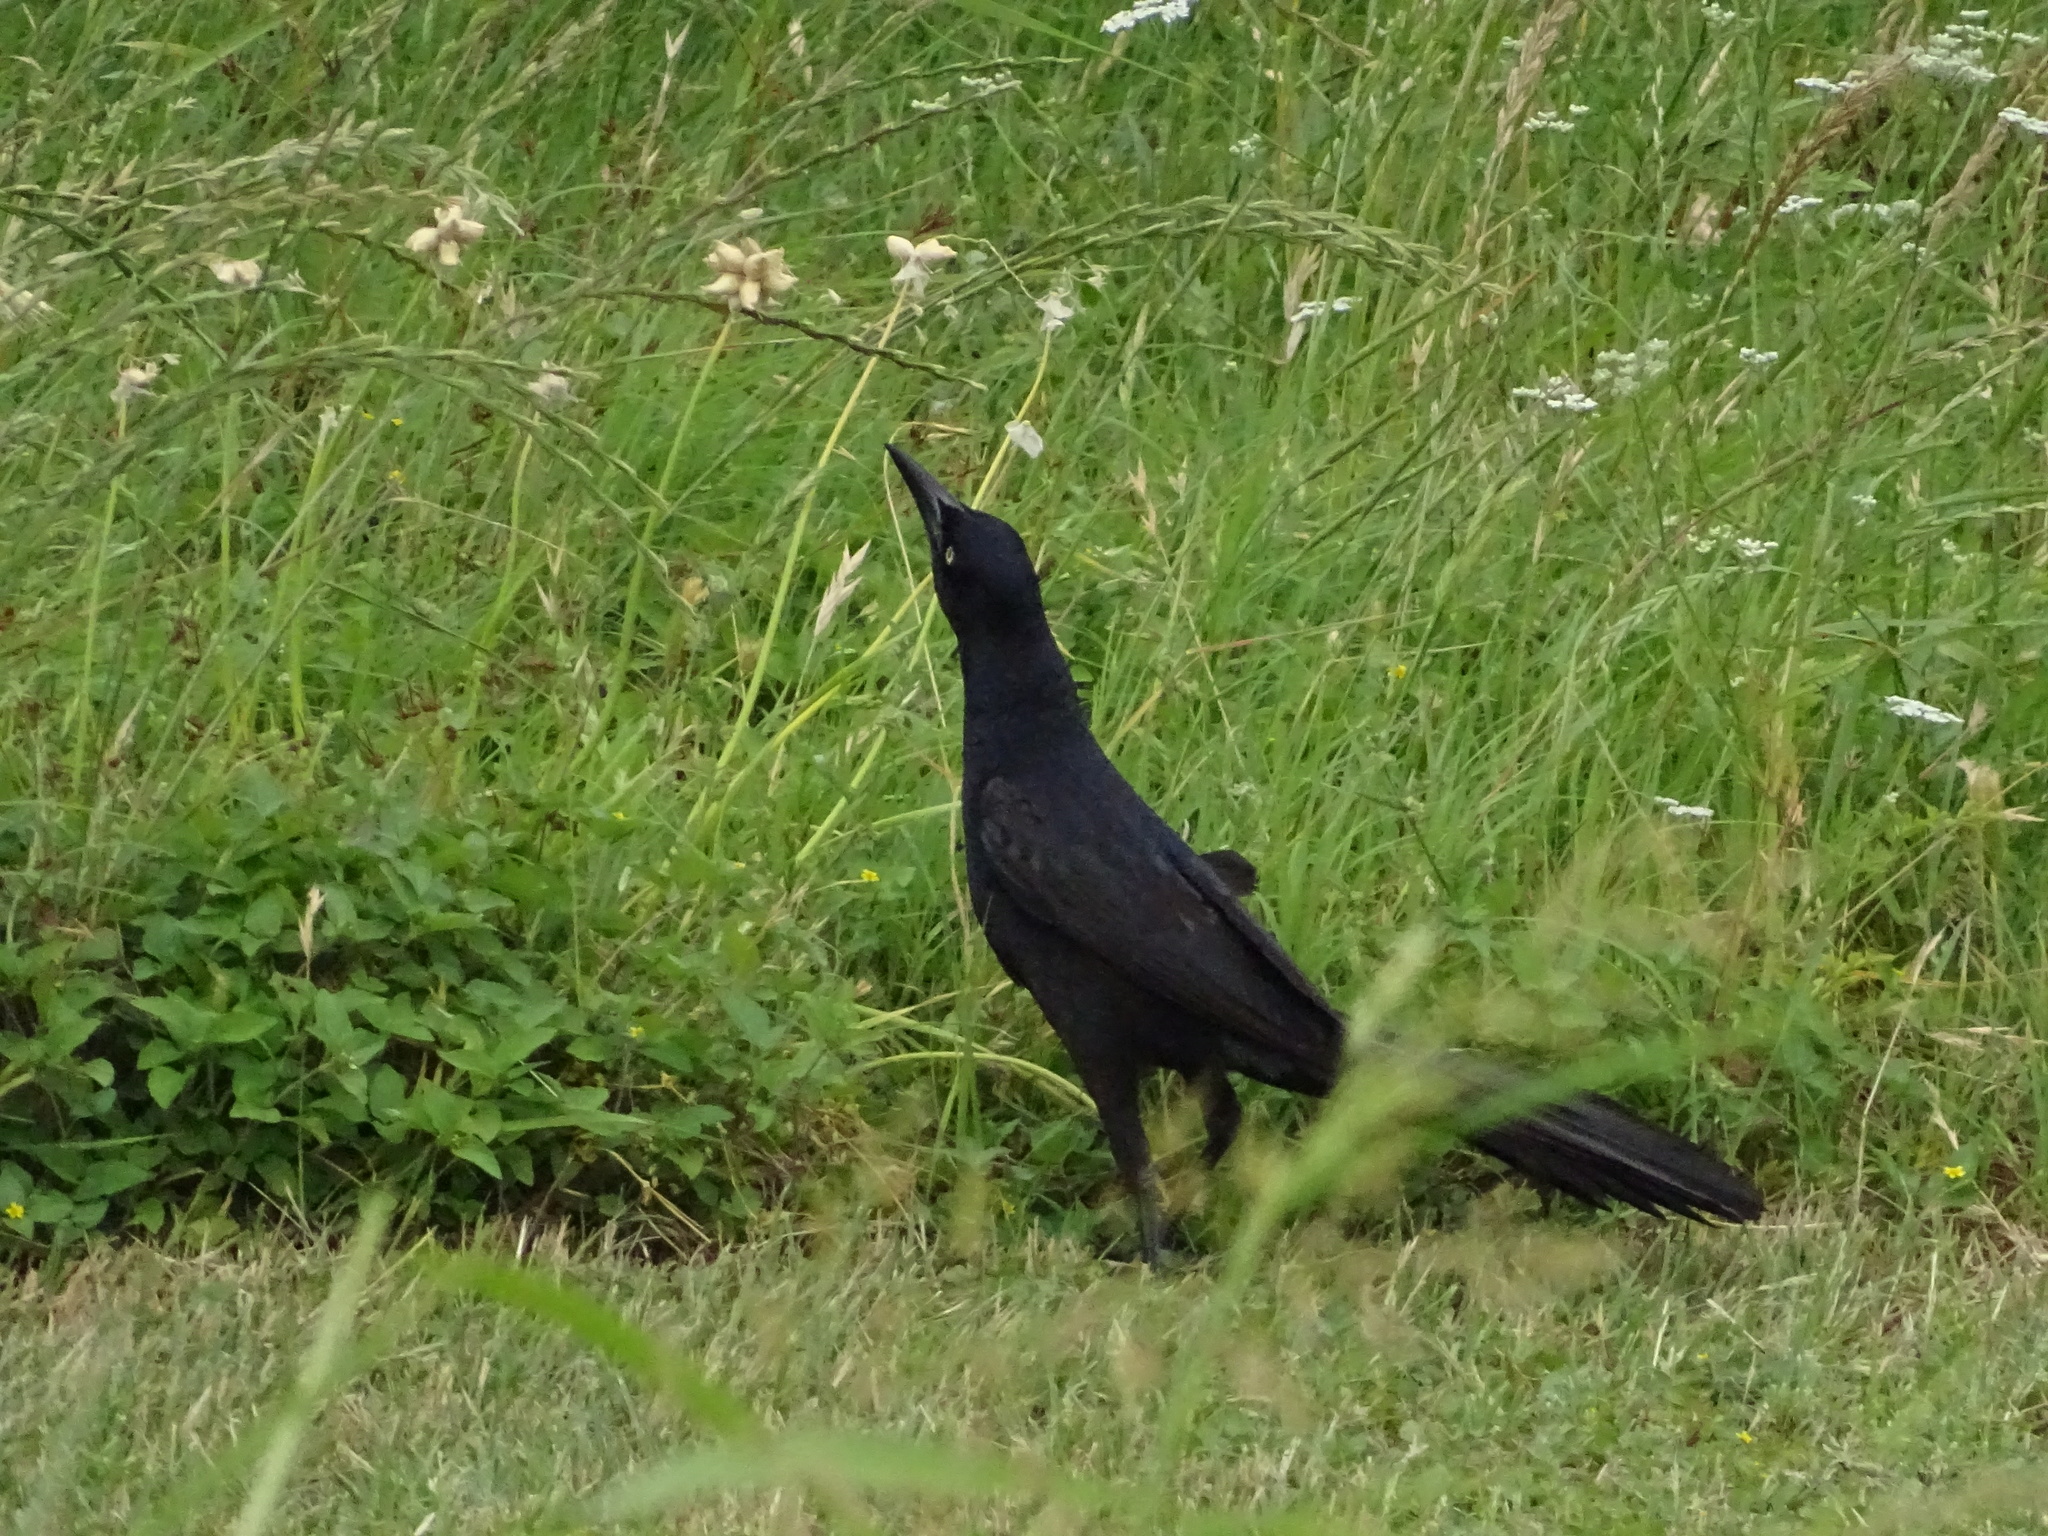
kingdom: Animalia
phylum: Chordata
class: Aves
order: Passeriformes
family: Icteridae
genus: Quiscalus
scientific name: Quiscalus mexicanus
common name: Great-tailed grackle
